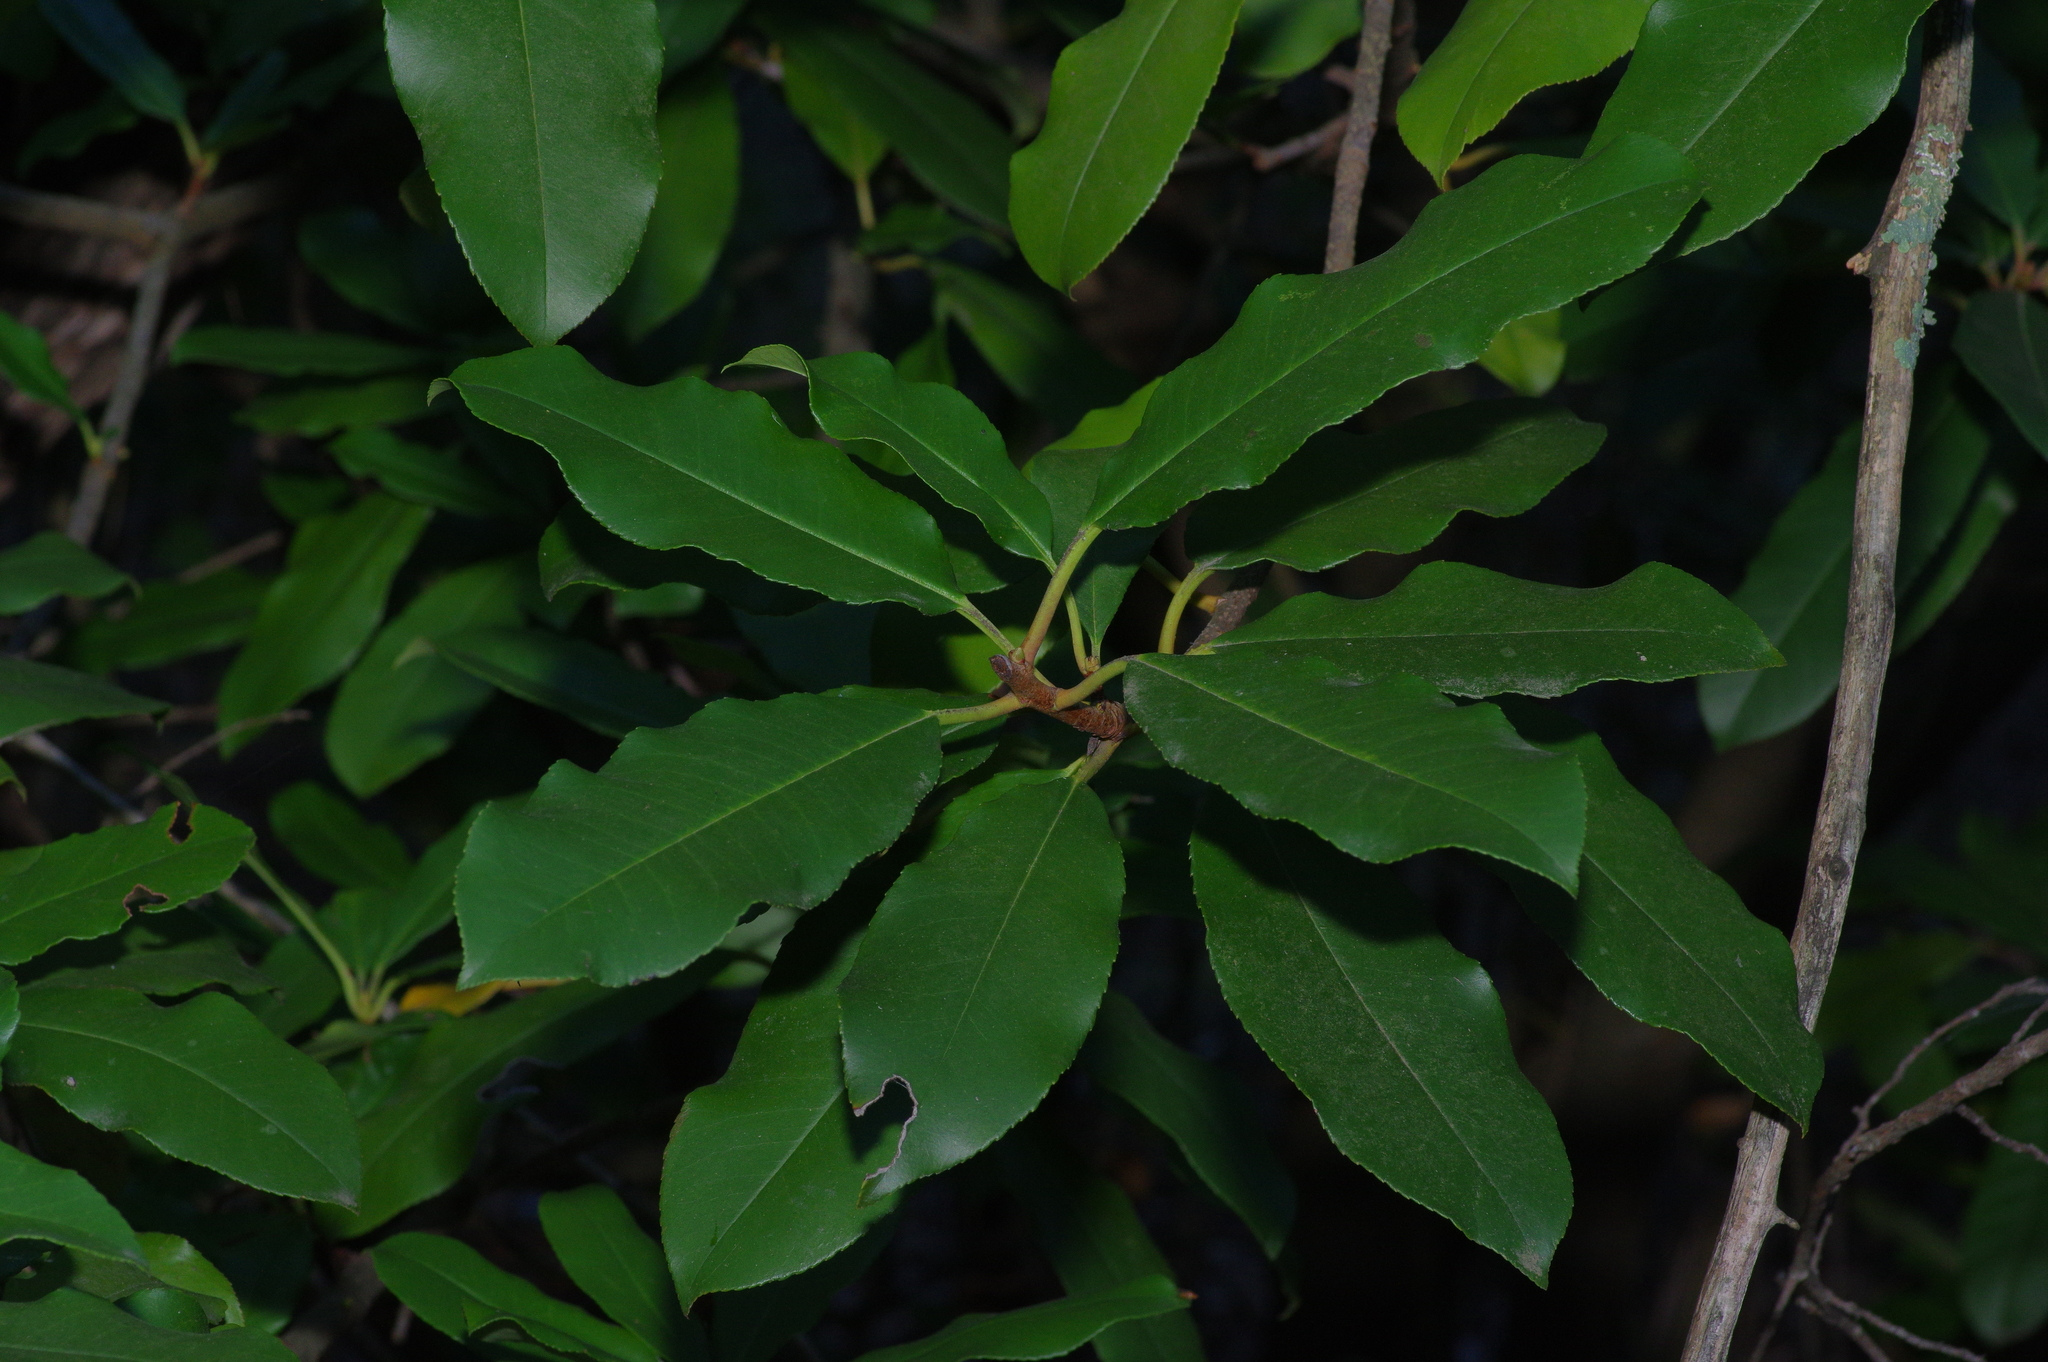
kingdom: Plantae
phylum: Tracheophyta
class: Magnoliopsida
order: Rosales
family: Rosaceae
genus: Photinia
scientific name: Photinia serratifolia
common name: Taiwanese photinia
